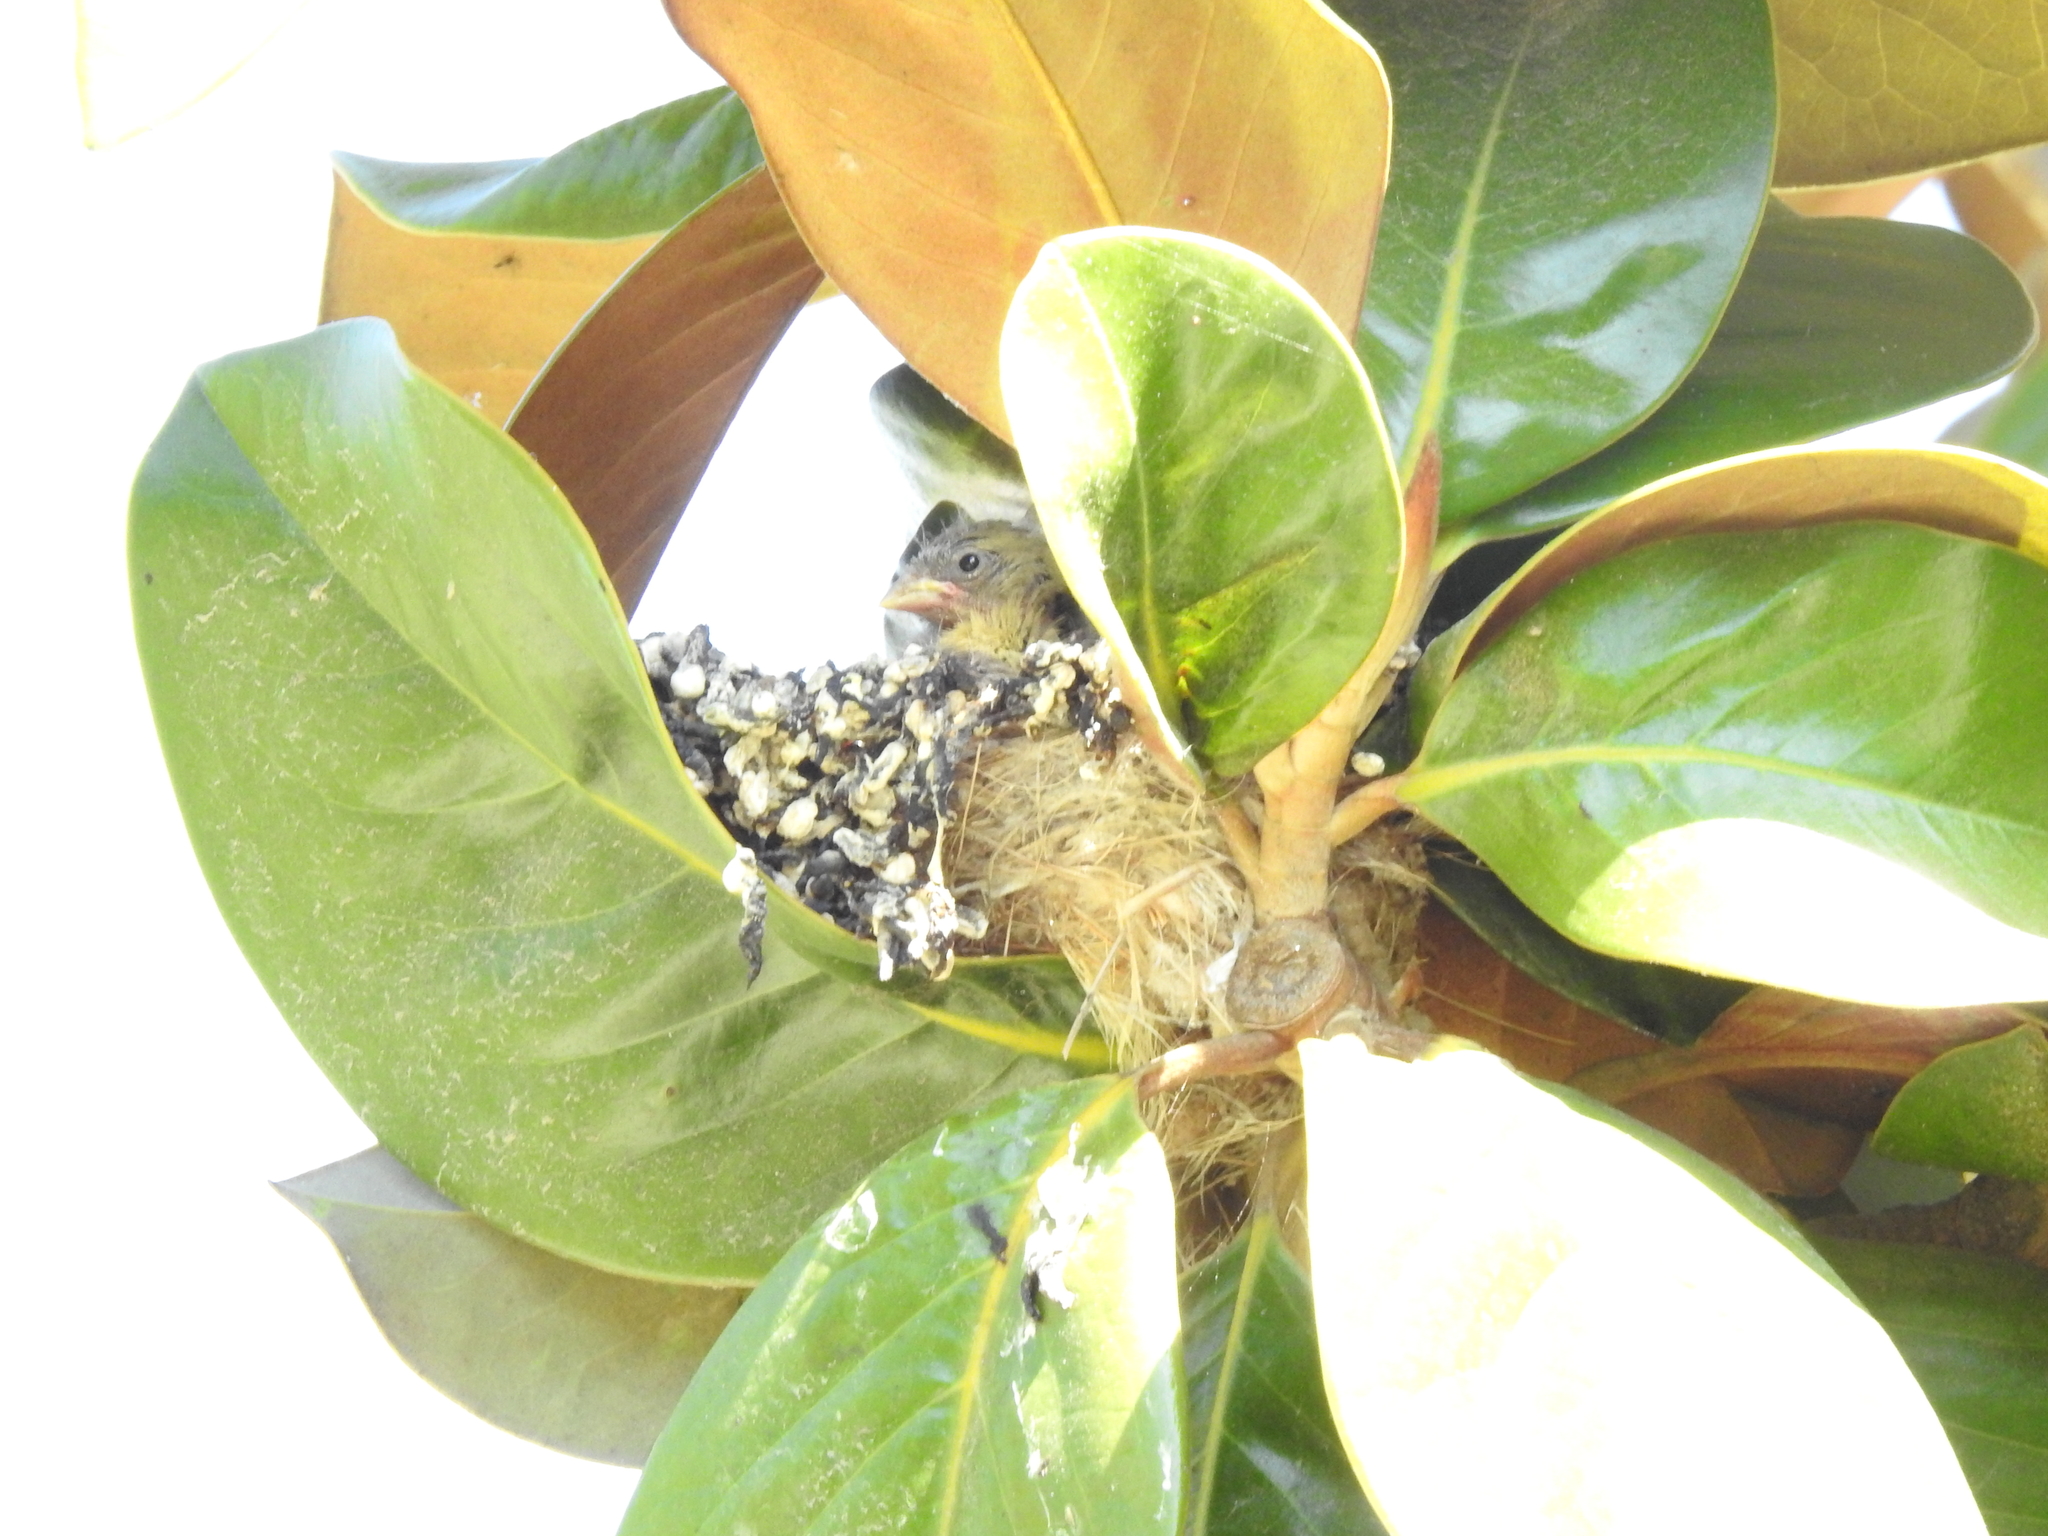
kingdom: Animalia
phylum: Chordata
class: Aves
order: Passeriformes
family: Fringillidae
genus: Spinus
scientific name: Spinus psaltria
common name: Lesser goldfinch
